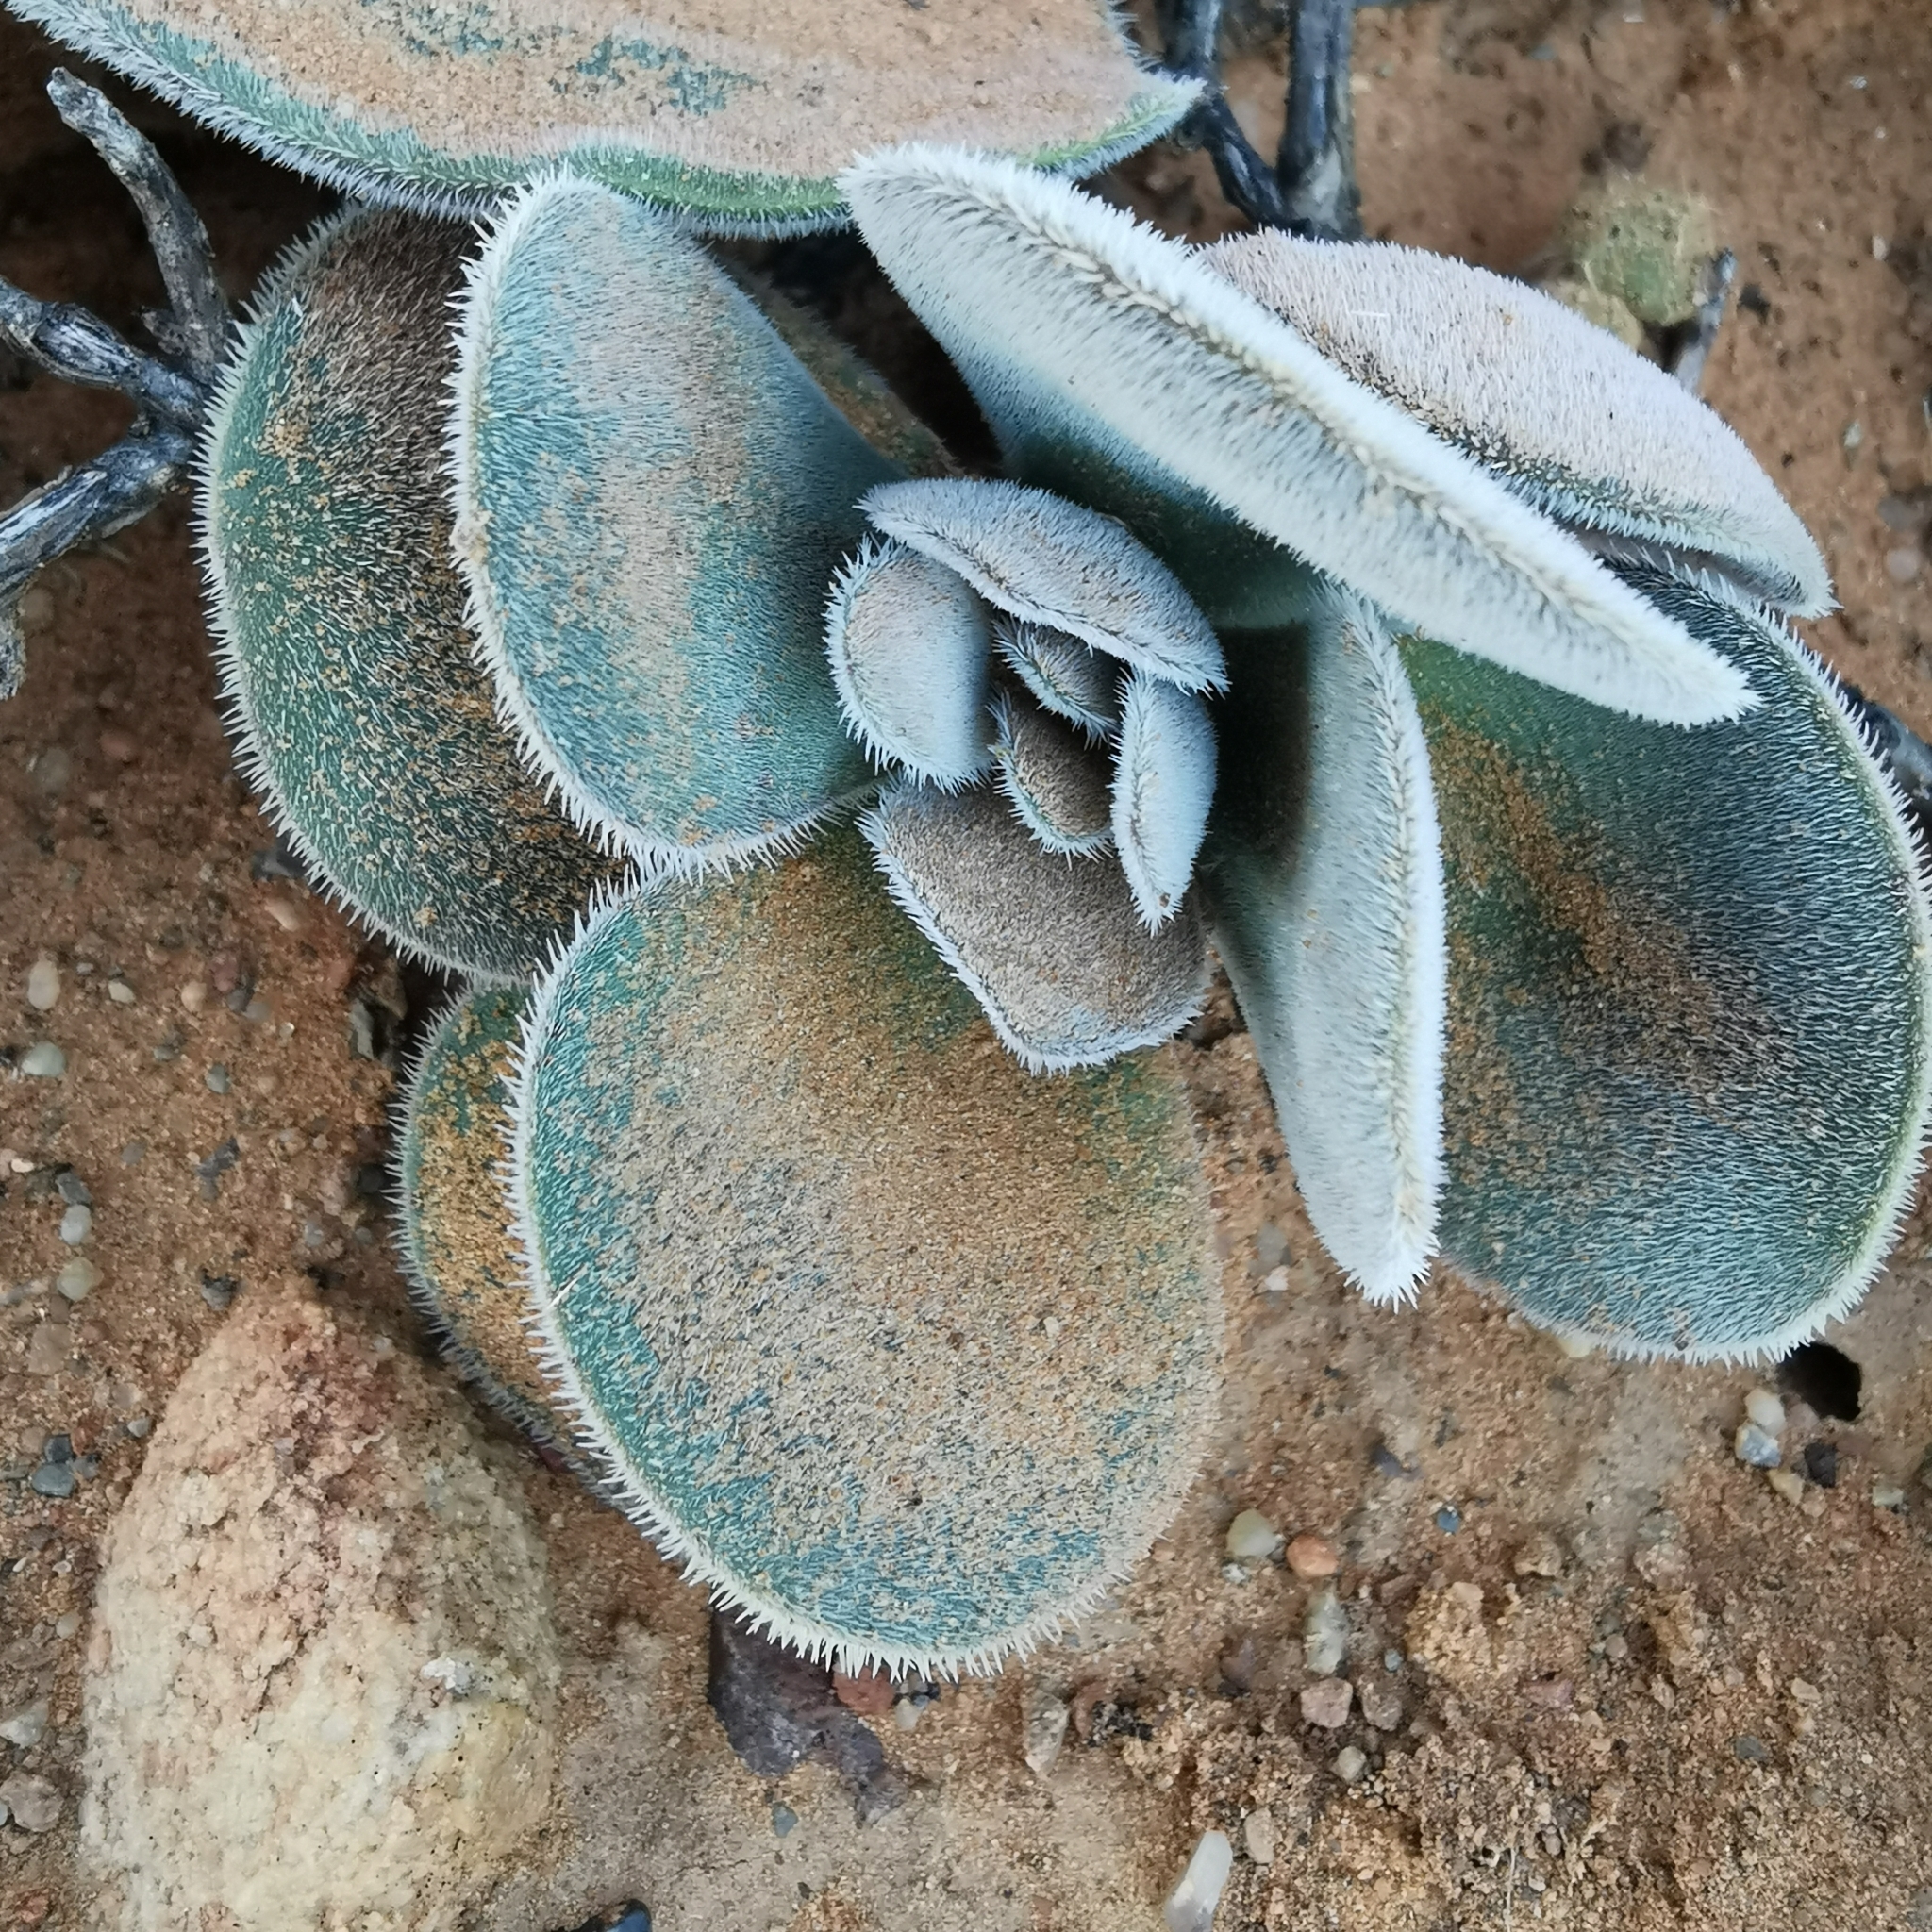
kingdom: Plantae
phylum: Tracheophyta
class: Magnoliopsida
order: Saxifragales
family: Crassulaceae
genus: Crassula
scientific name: Crassula tomentosa
